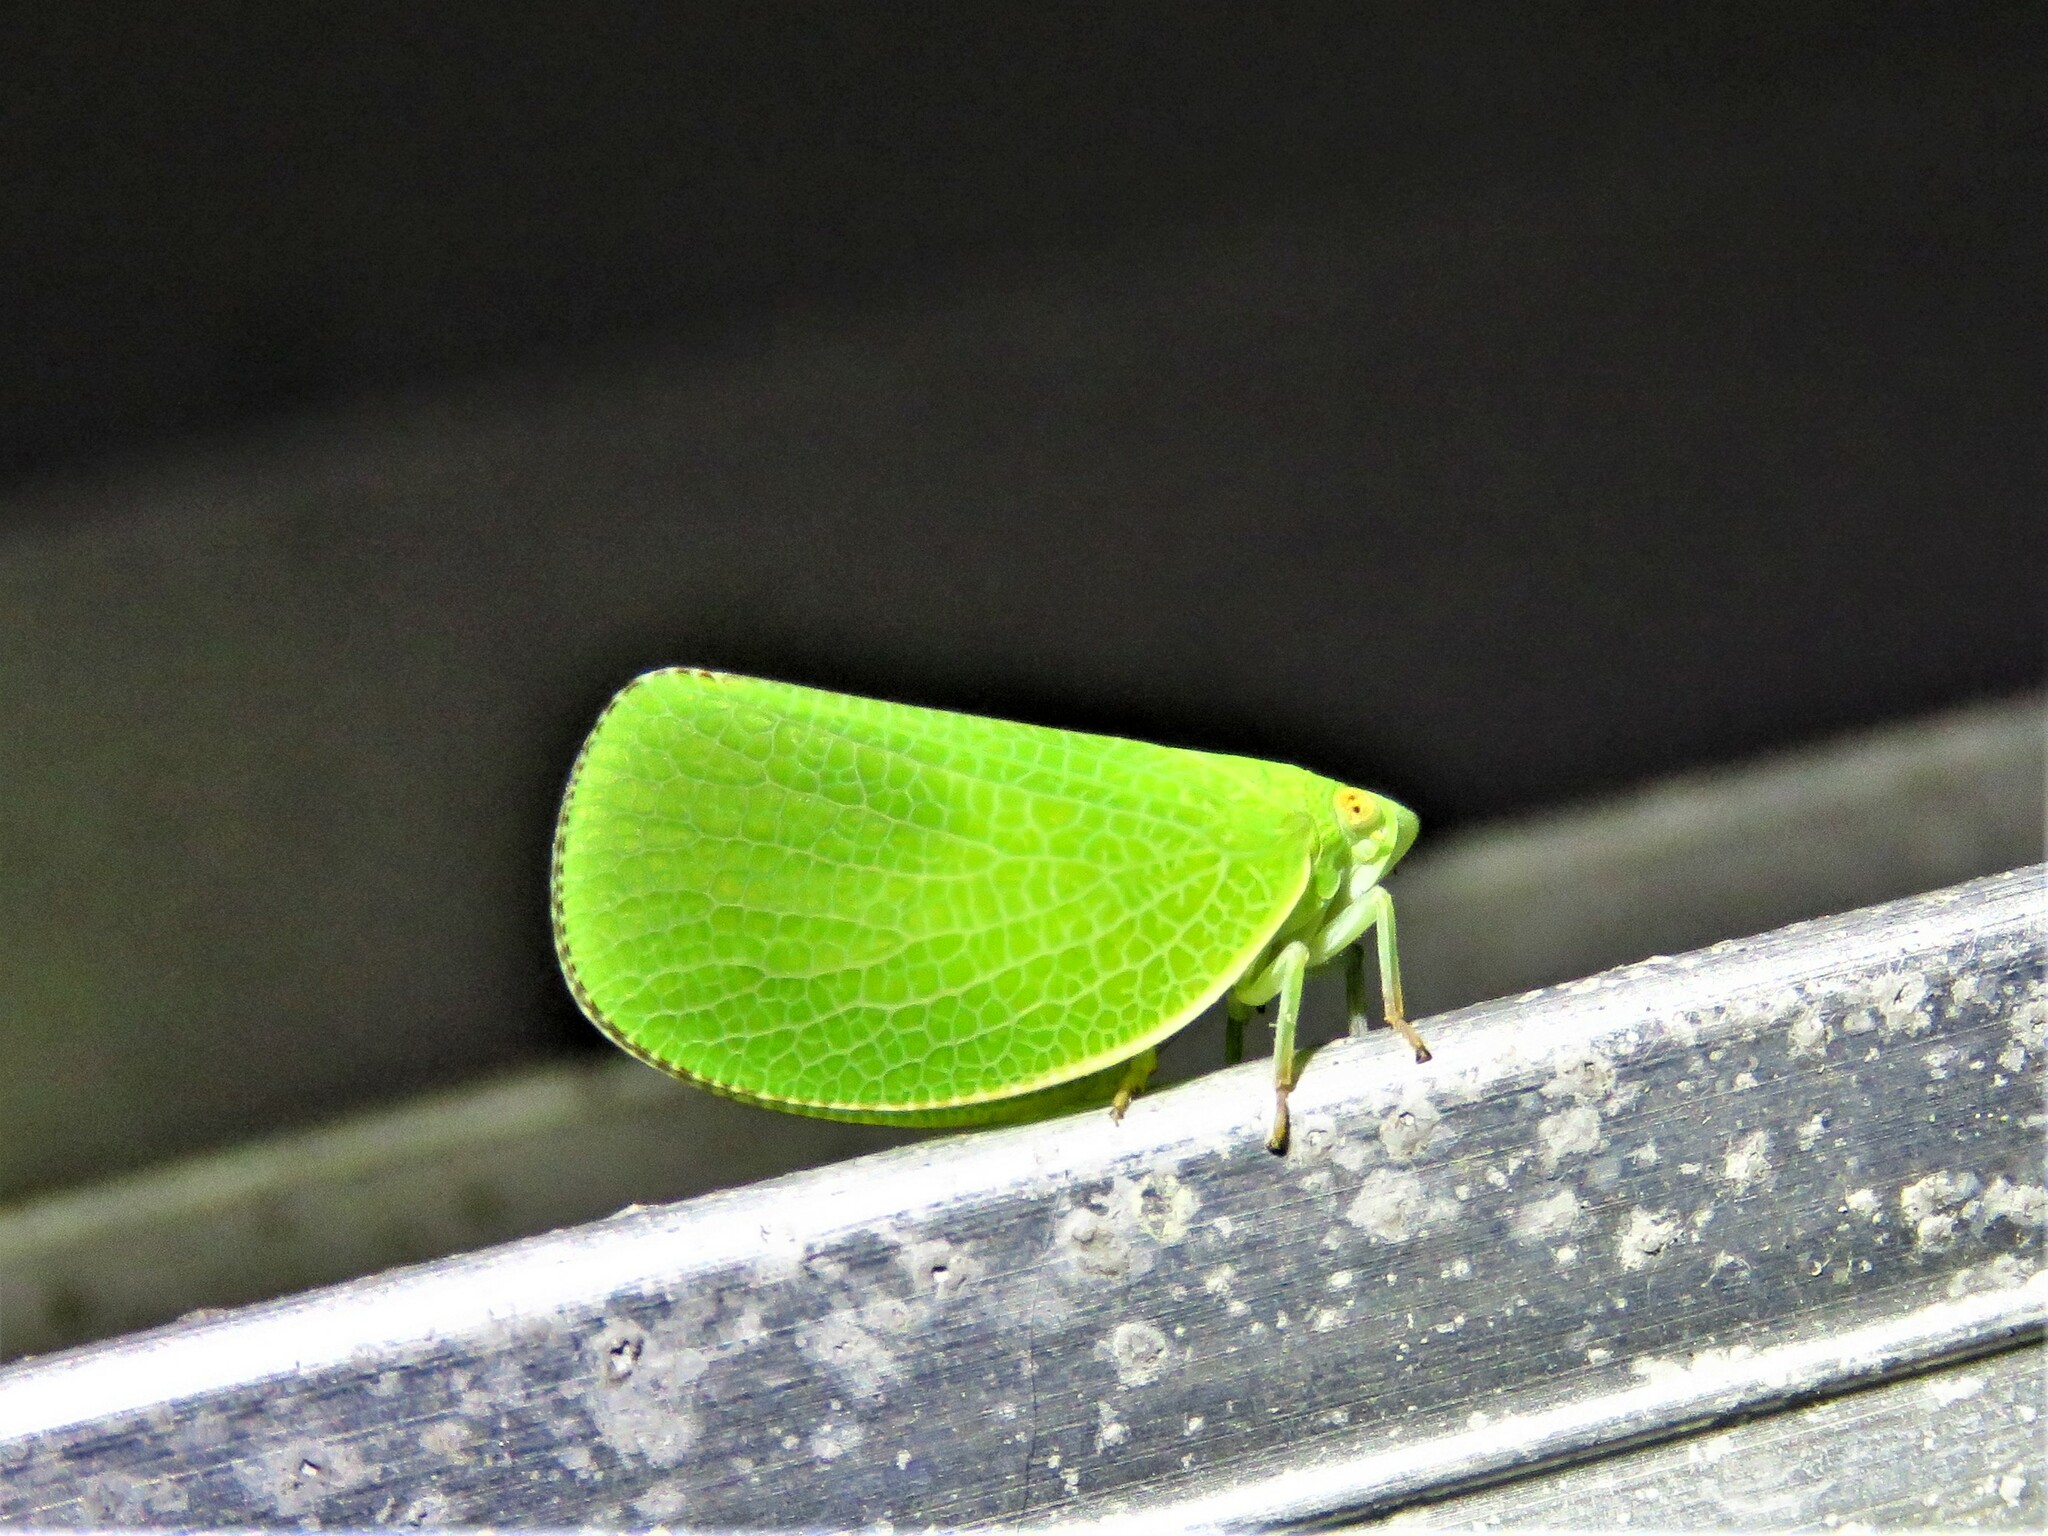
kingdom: Animalia
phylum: Arthropoda
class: Insecta
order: Hemiptera
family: Acanaloniidae
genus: Acanalonia
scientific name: Acanalonia conica
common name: Green cone-headed planthopper
